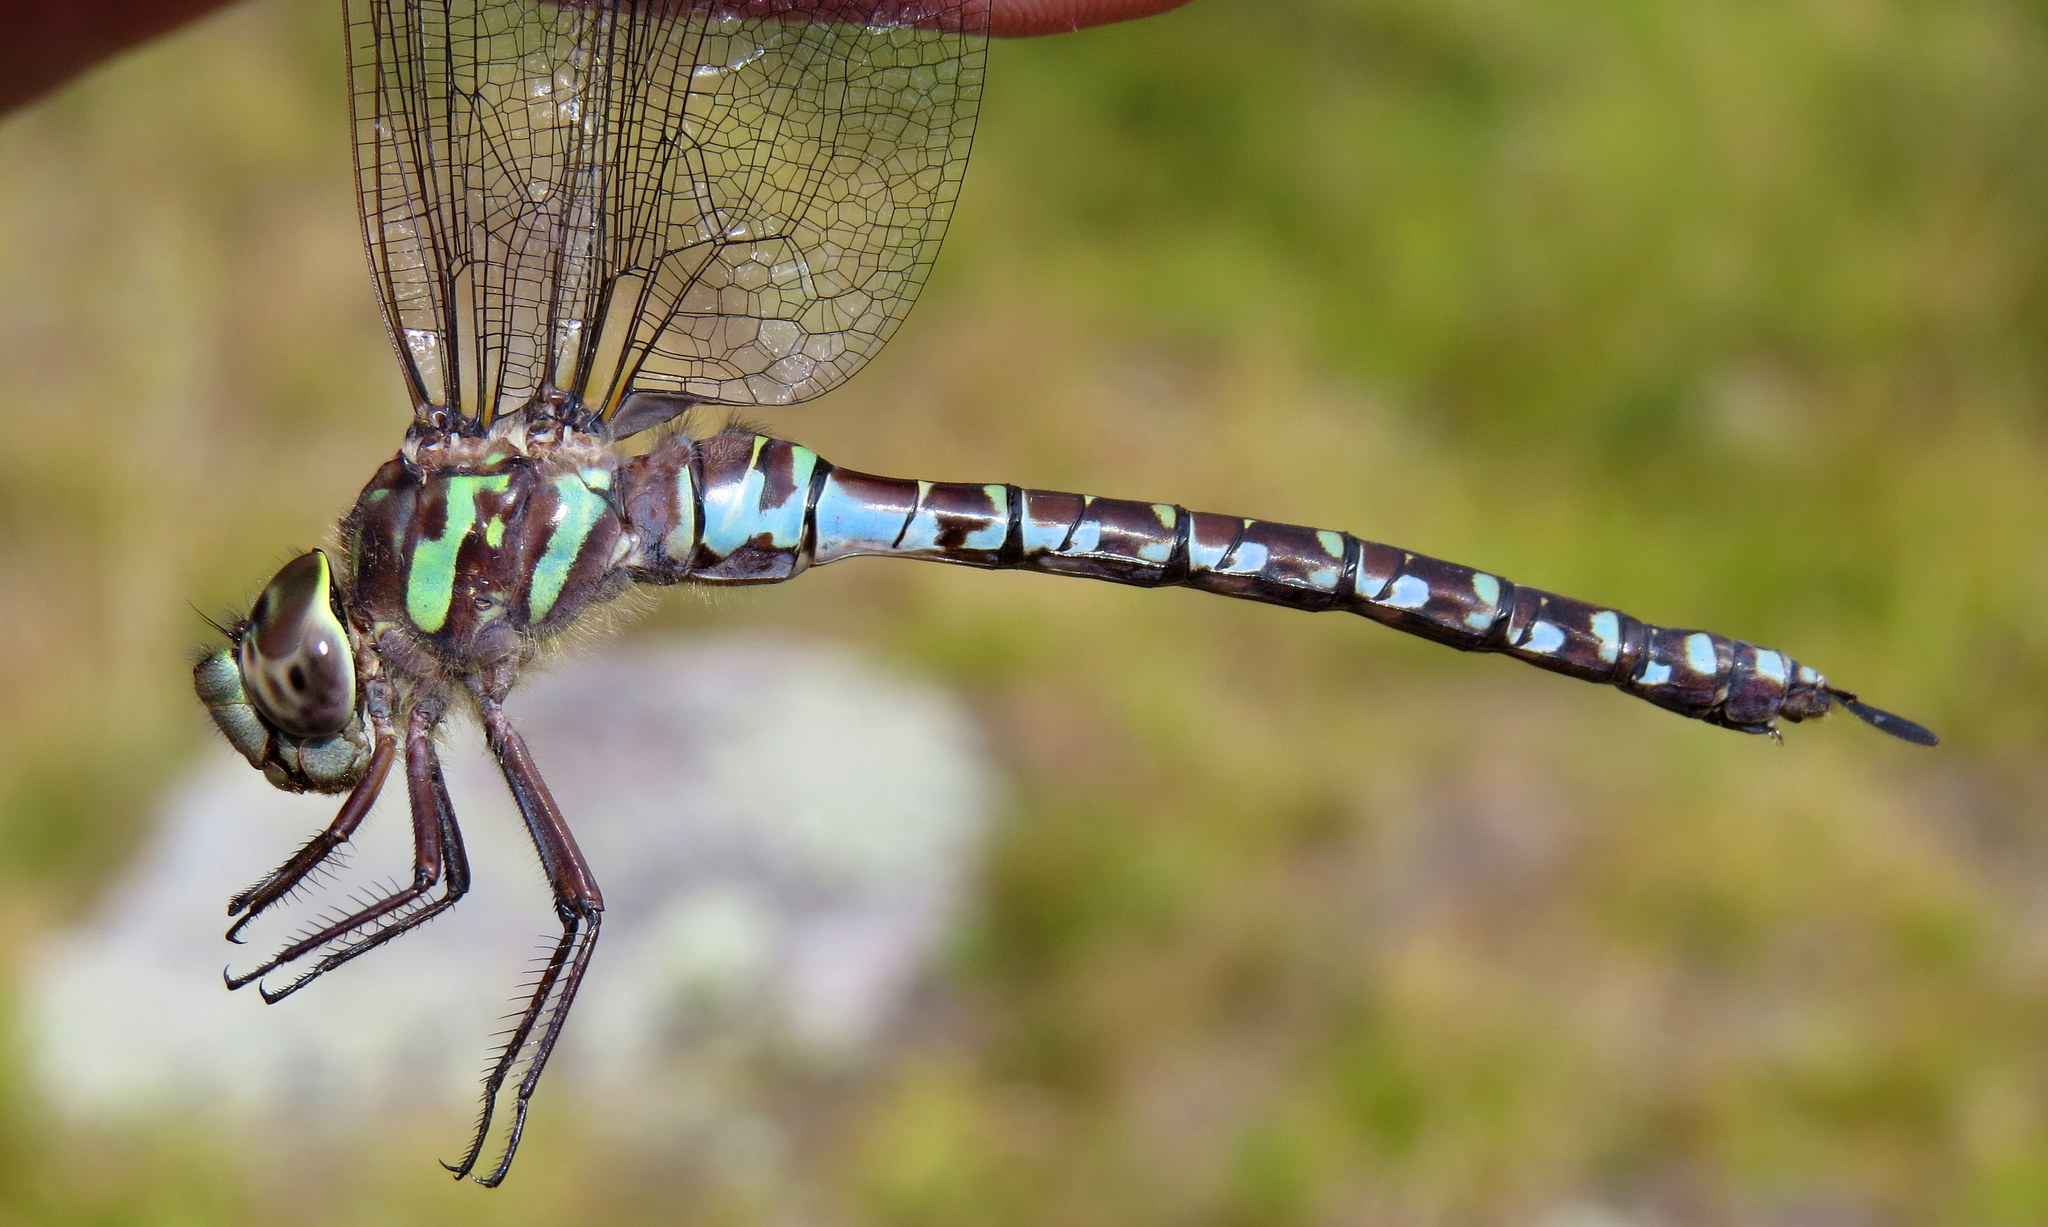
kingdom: Animalia
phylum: Arthropoda
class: Insecta
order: Odonata
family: Aeshnidae
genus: Aeshna
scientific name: Aeshna canadensis
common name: Canada darner
